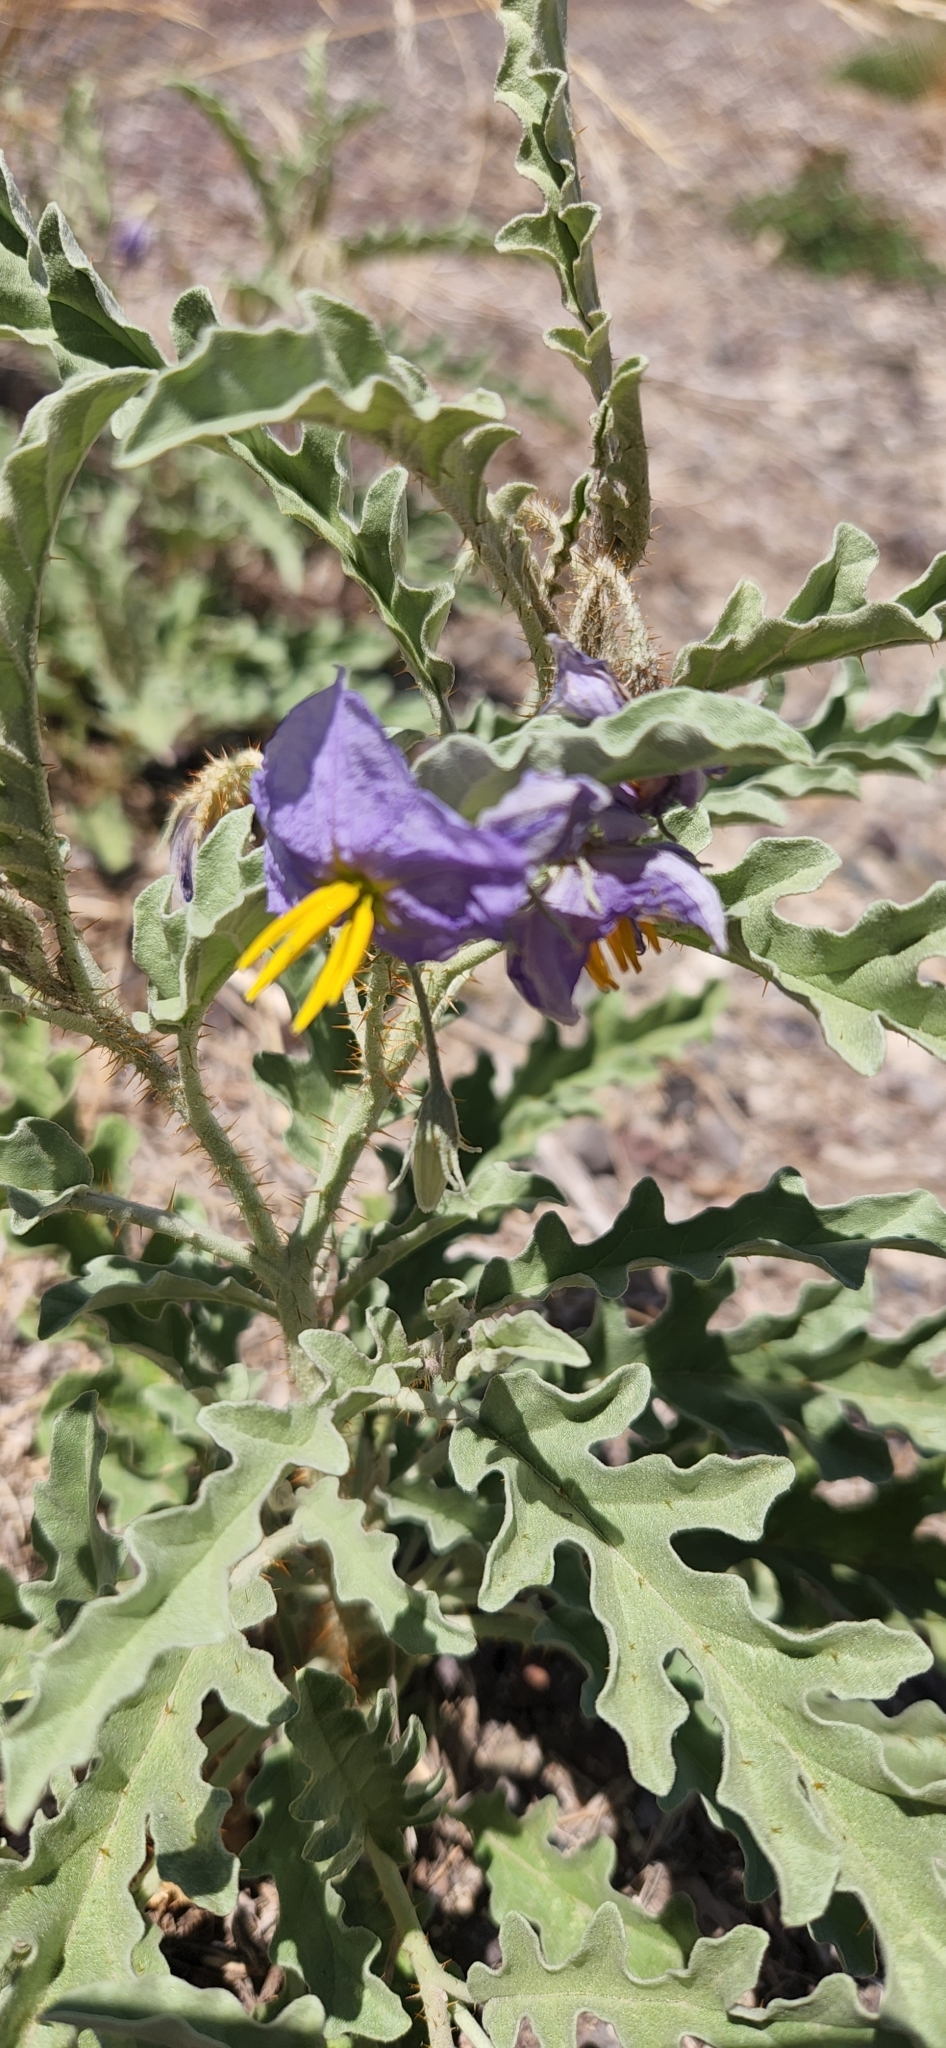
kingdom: Plantae
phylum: Tracheophyta
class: Magnoliopsida
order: Solanales
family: Solanaceae
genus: Solanum
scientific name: Solanum elaeagnifolium
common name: Silverleaf nightshade
